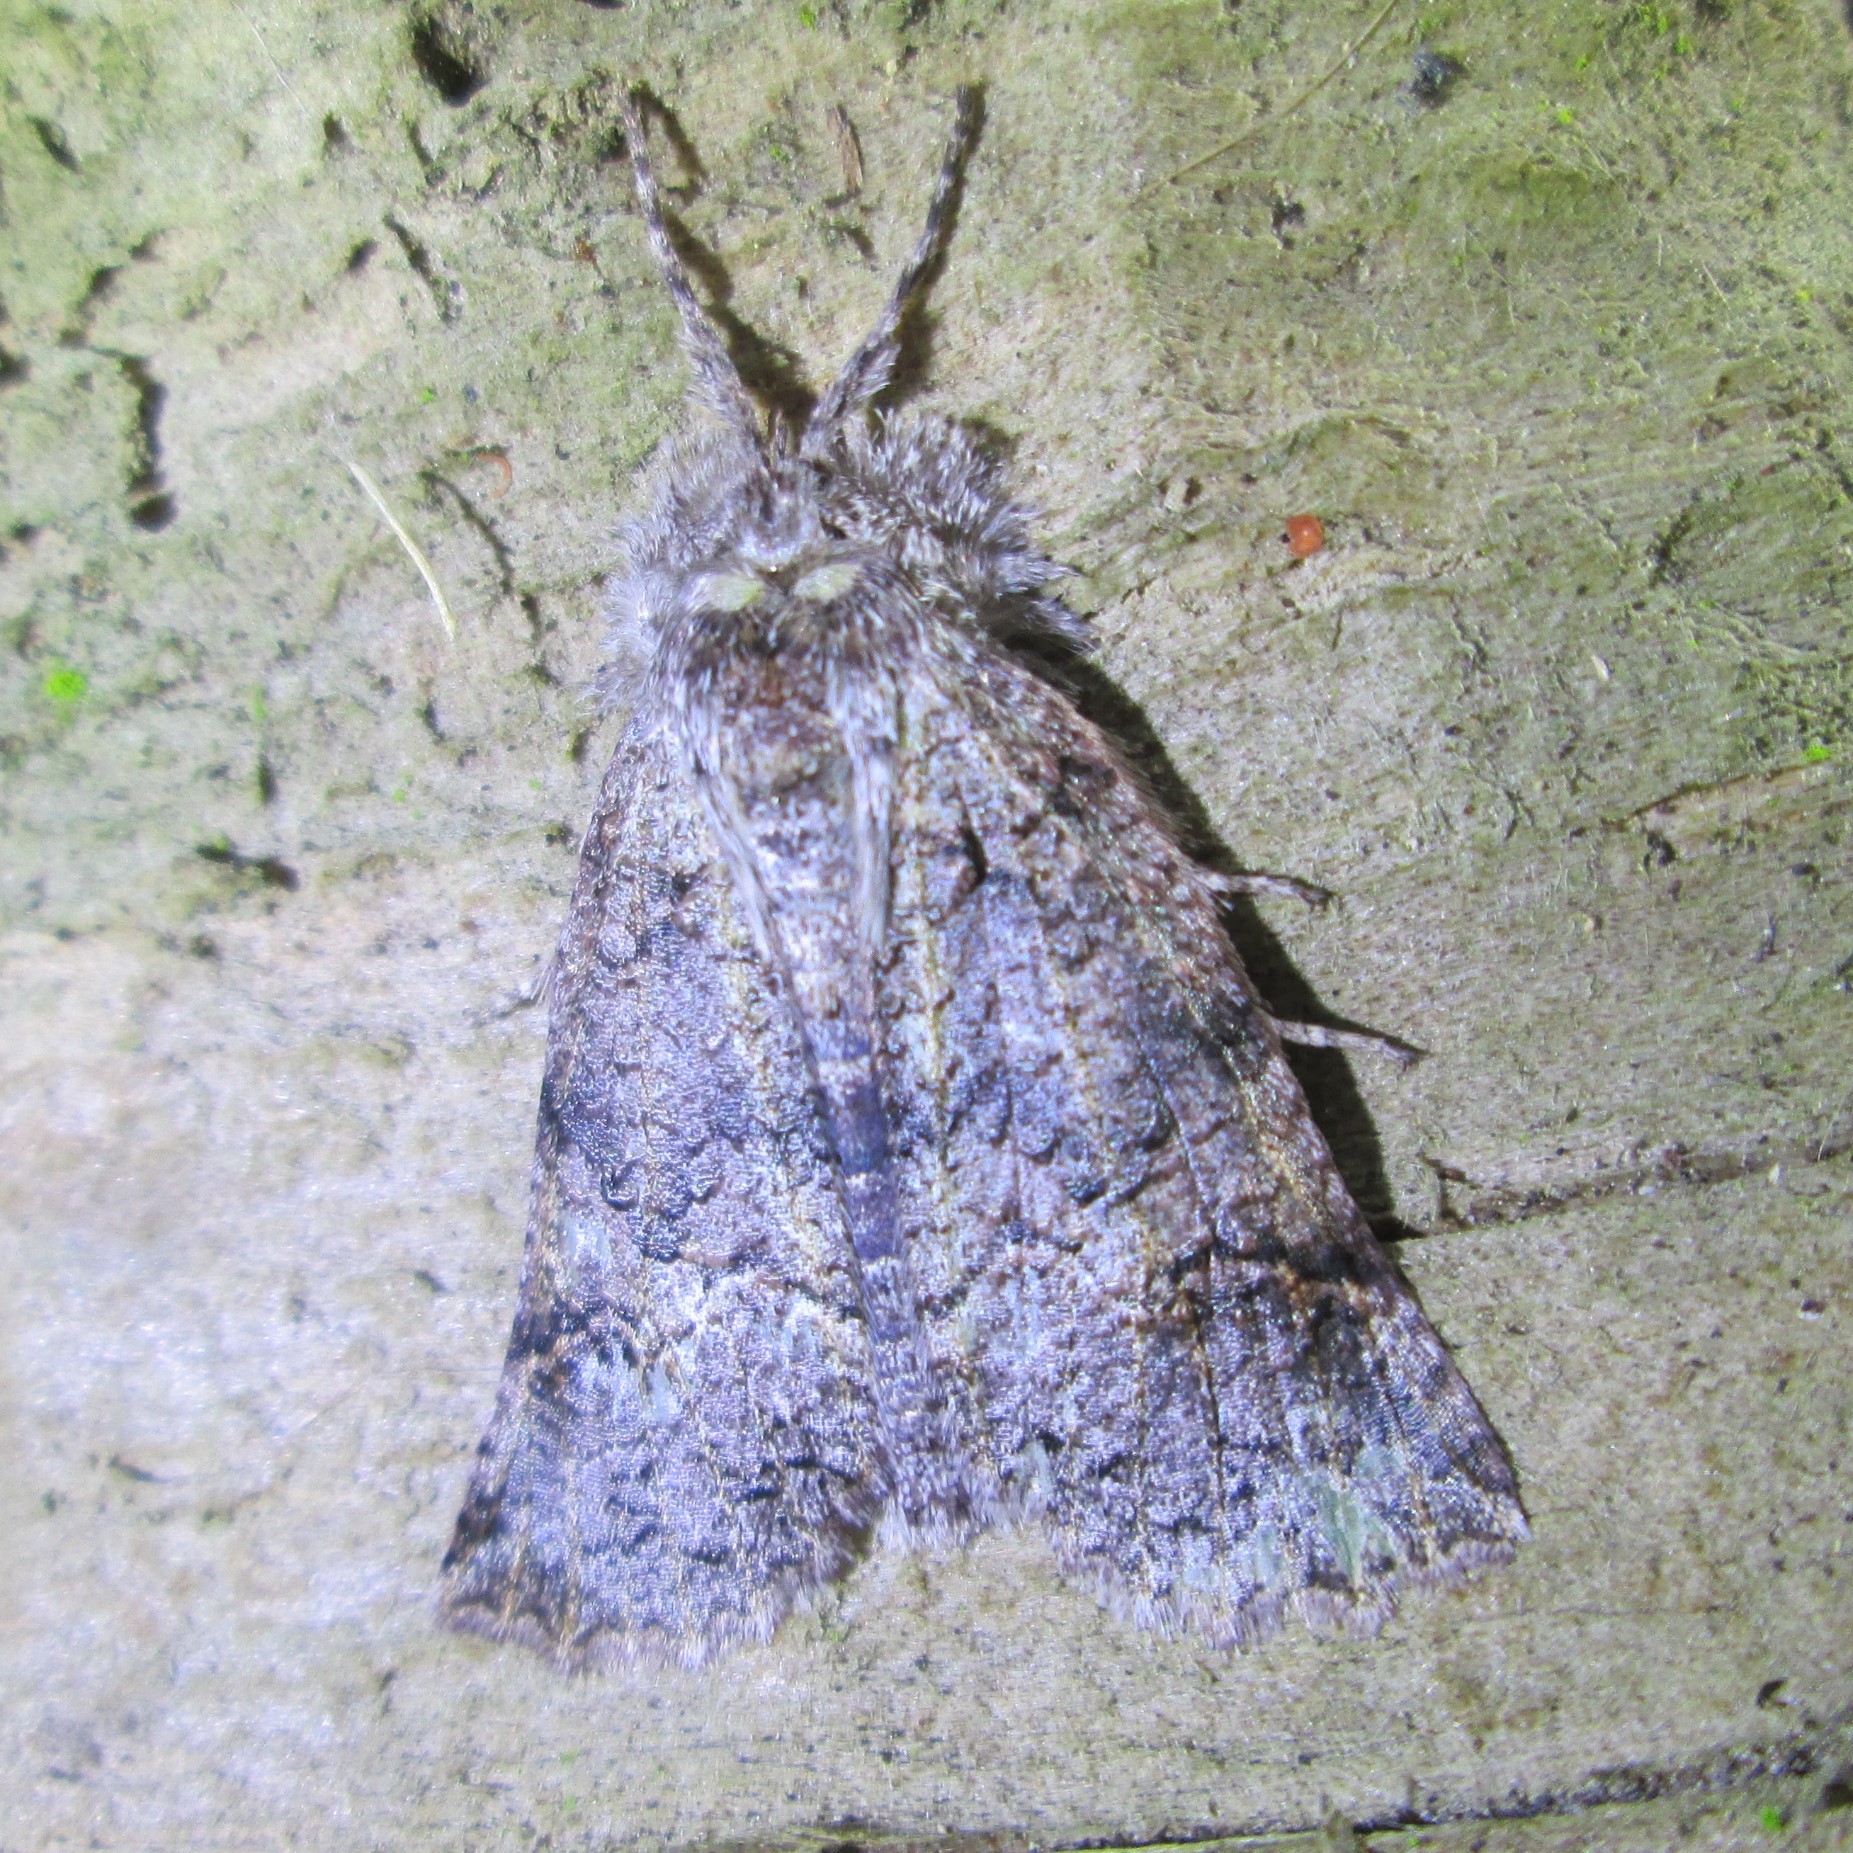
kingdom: Animalia
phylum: Arthropoda
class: Insecta
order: Lepidoptera
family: Geometridae
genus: Declana
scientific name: Declana floccosa
